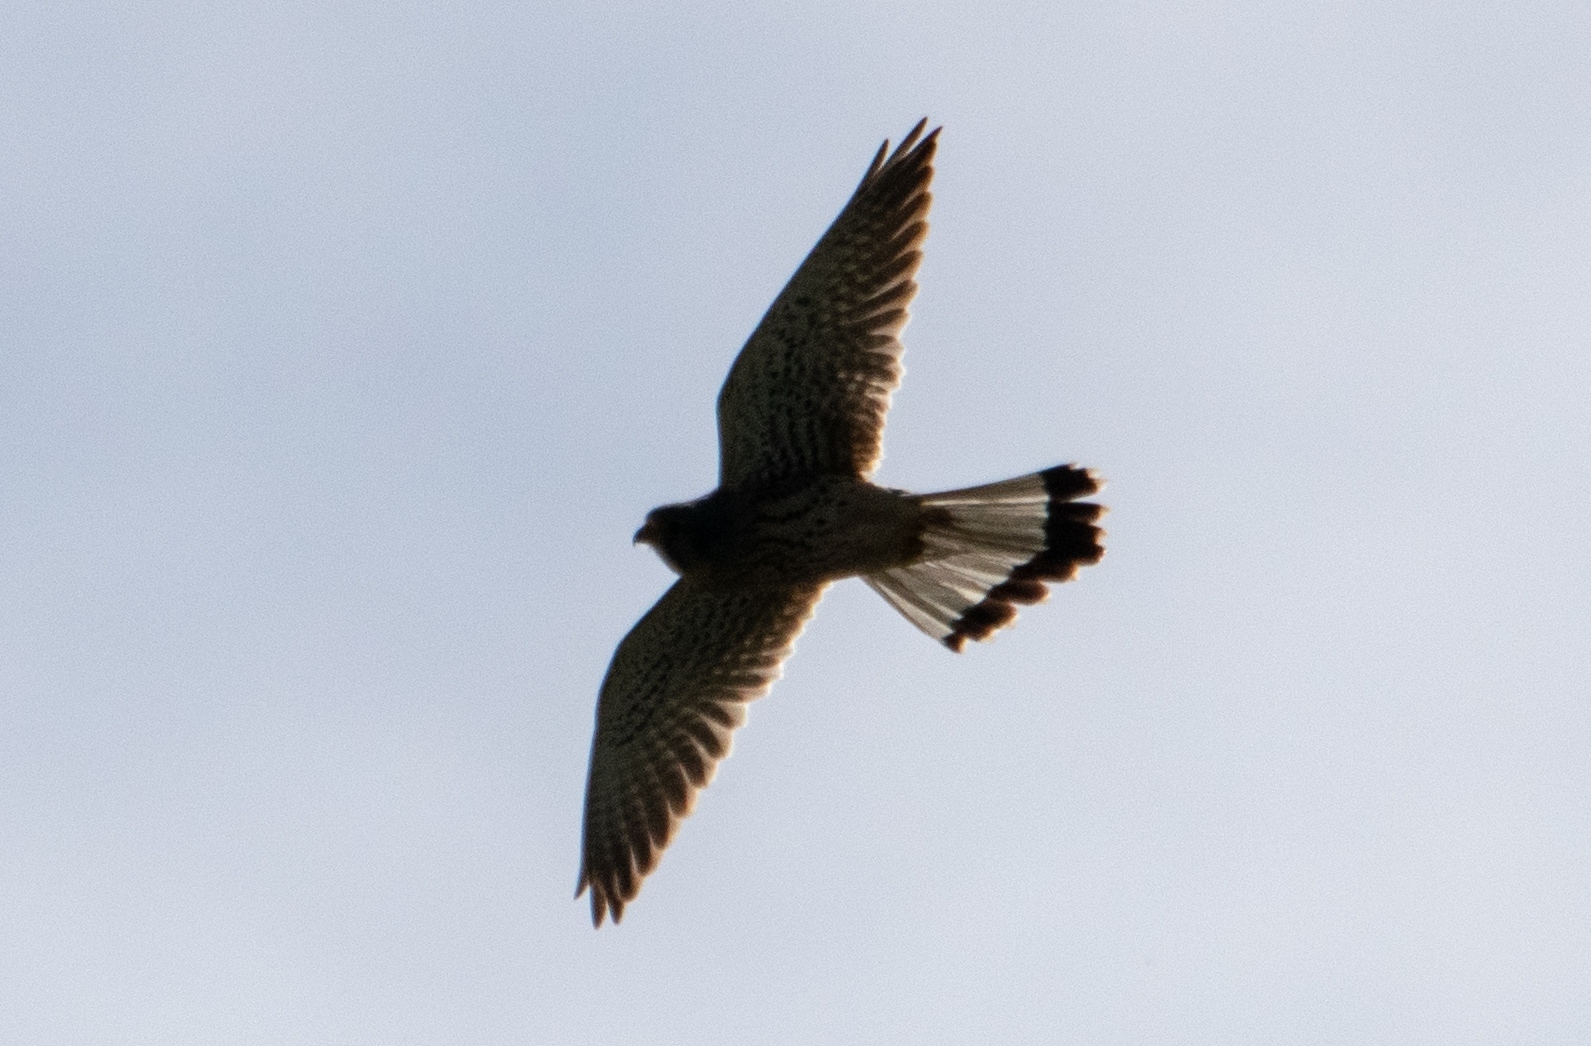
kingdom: Animalia
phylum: Chordata
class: Aves
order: Falconiformes
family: Falconidae
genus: Falco
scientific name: Falco tinnunculus
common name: Common kestrel
